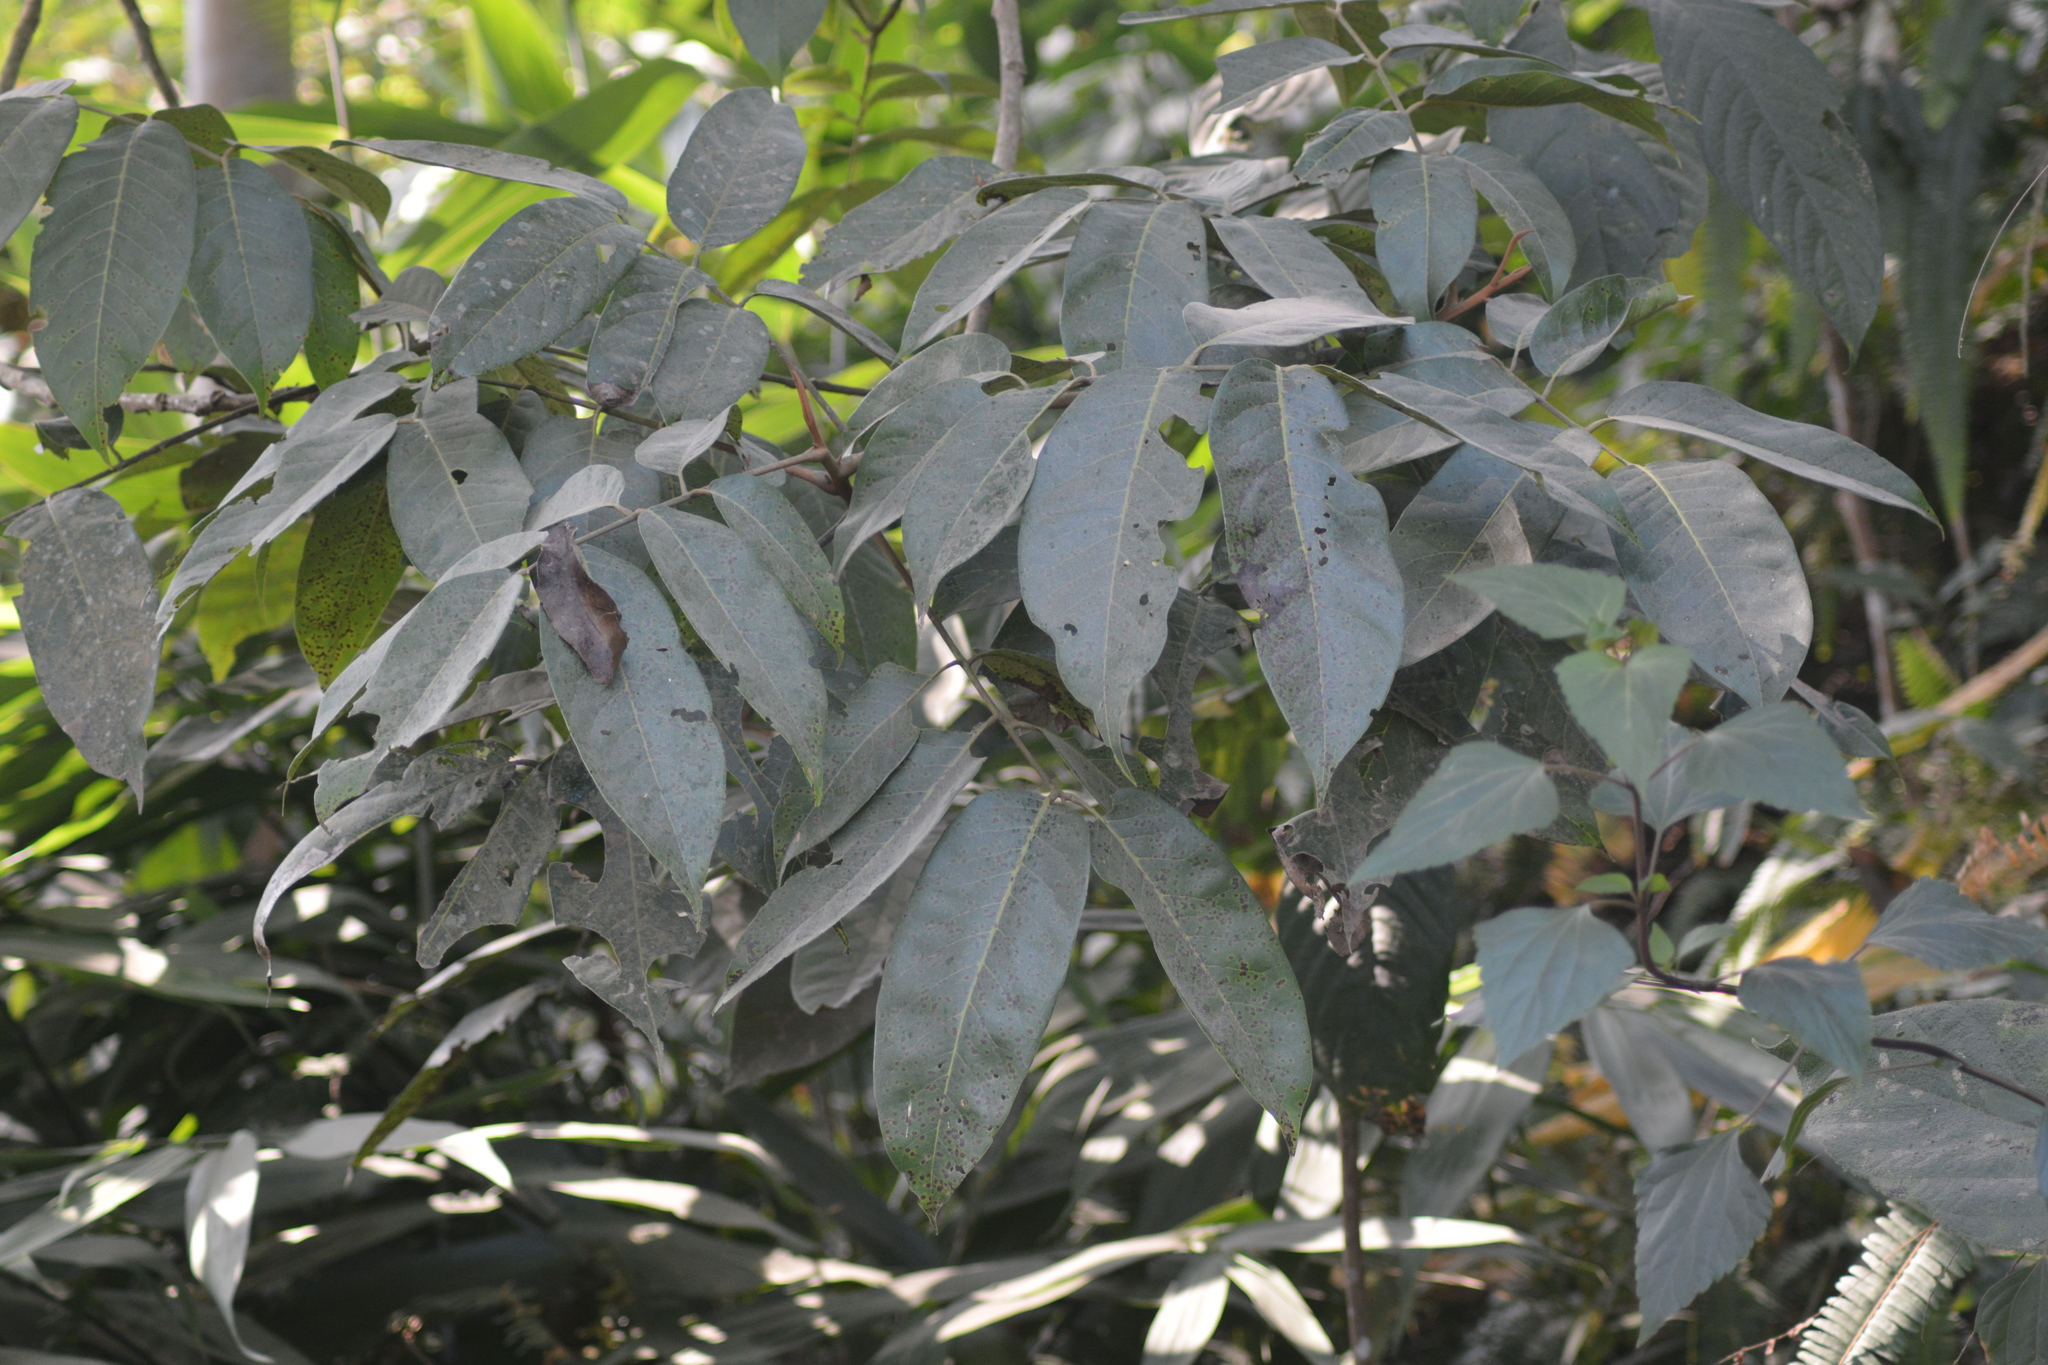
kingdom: Plantae
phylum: Tracheophyta
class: Magnoliopsida
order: Sapindales
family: Sapindaceae
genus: Sapindus
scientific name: Sapindus mukorossi
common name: Chinese soapberry
